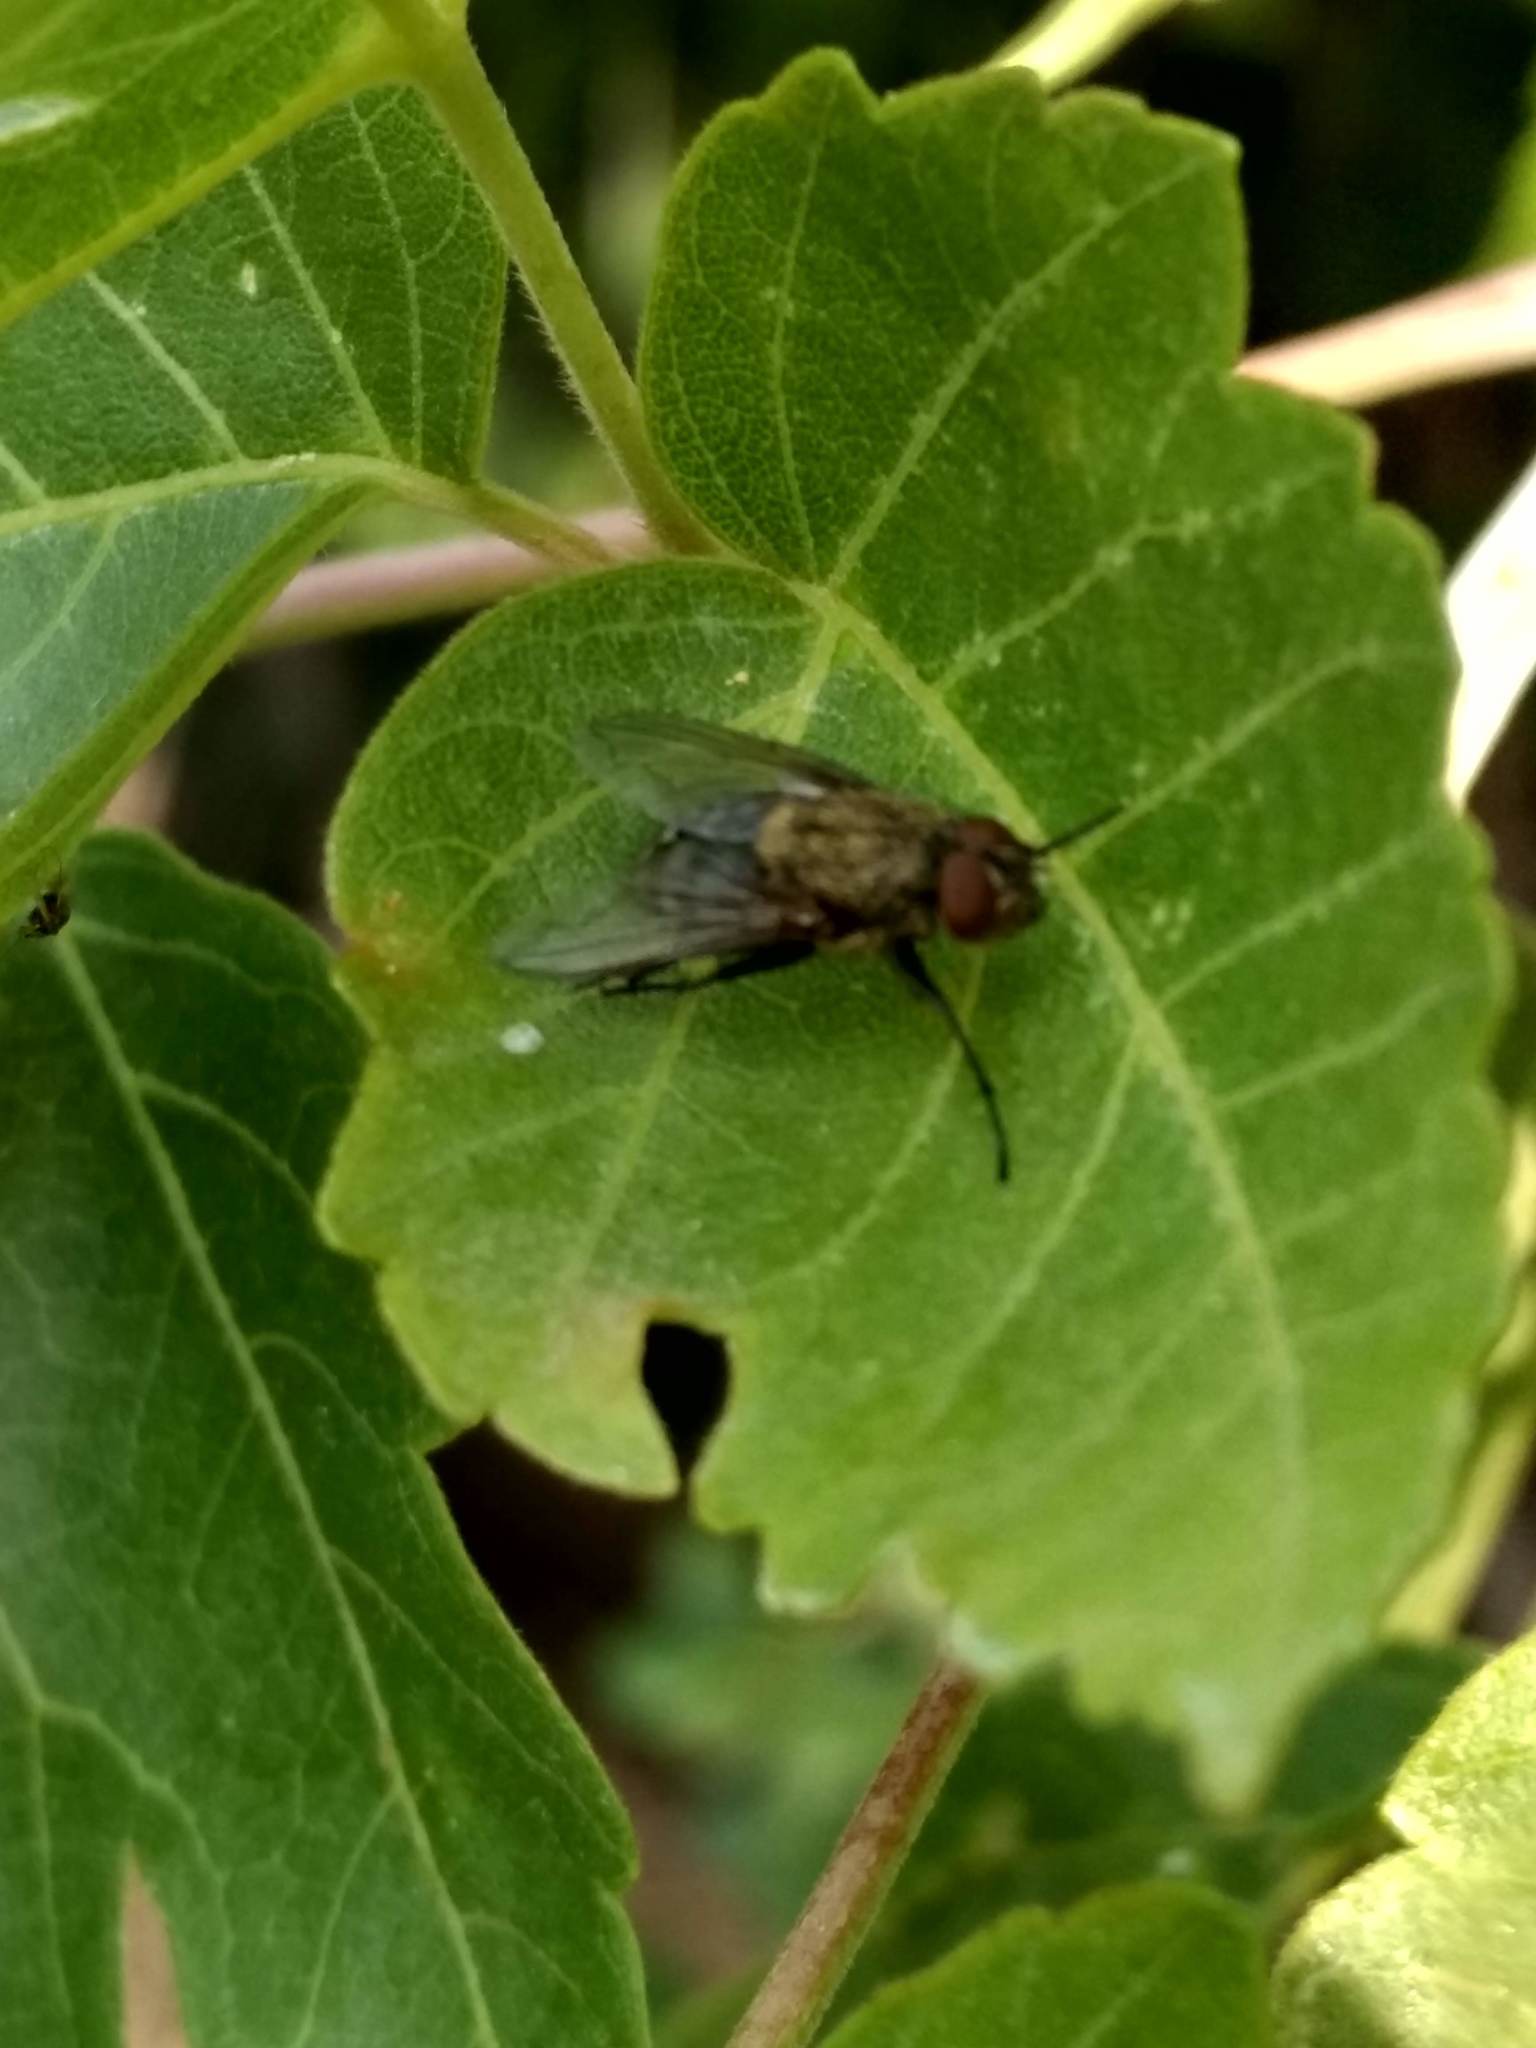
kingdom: Animalia
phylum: Arthropoda
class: Insecta
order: Diptera
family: Polleniidae
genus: Pollenia
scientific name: Pollenia
